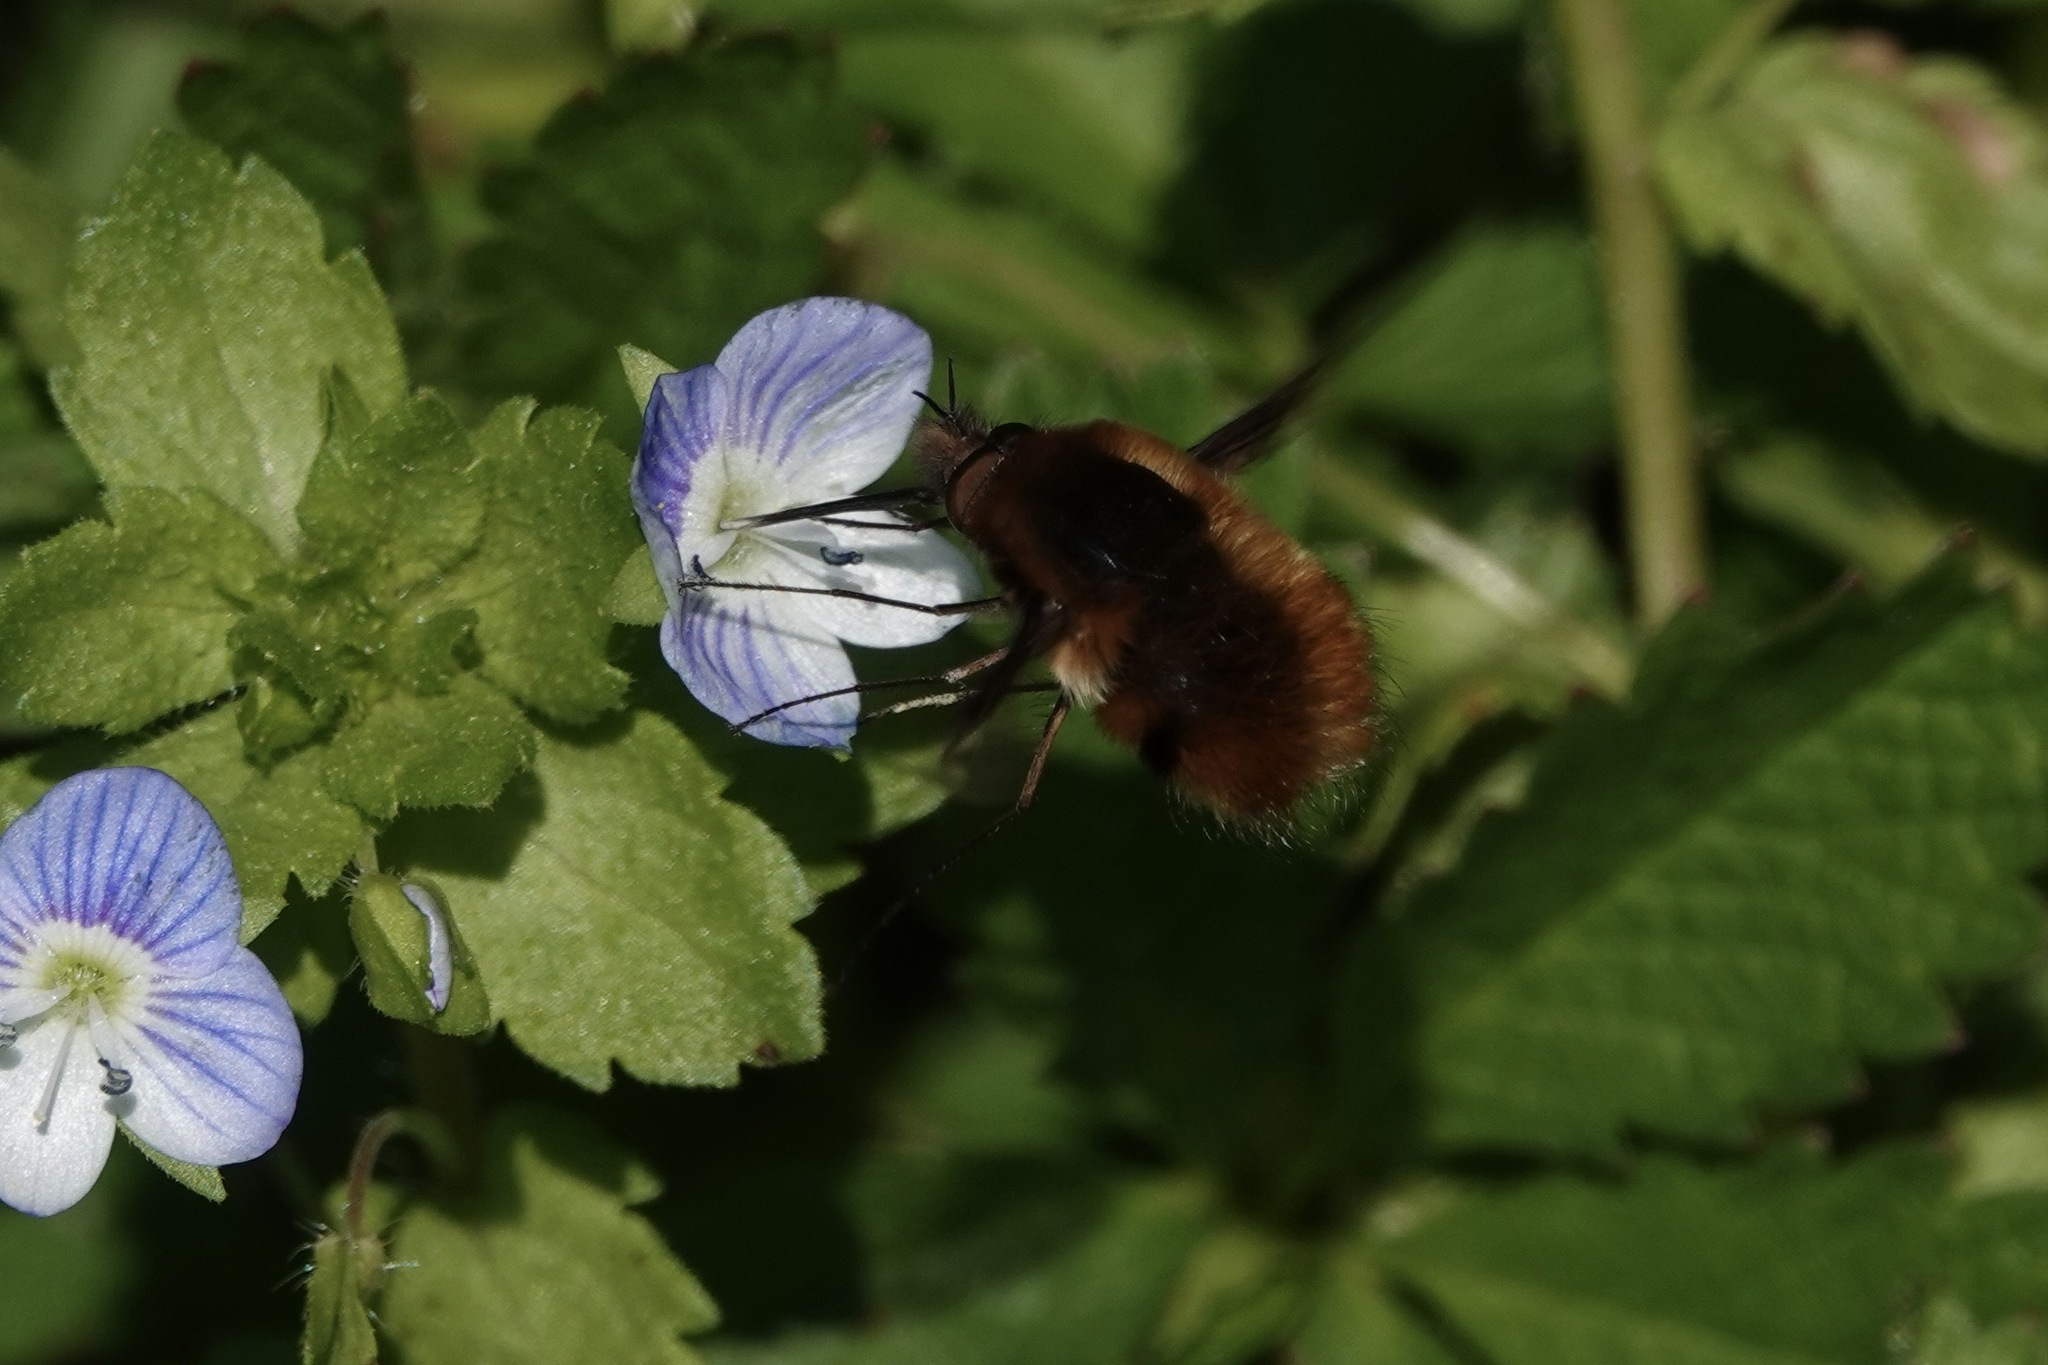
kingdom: Animalia
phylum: Arthropoda
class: Insecta
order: Diptera
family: Bombyliidae
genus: Bombylius
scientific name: Bombylius major
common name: Bee fly
